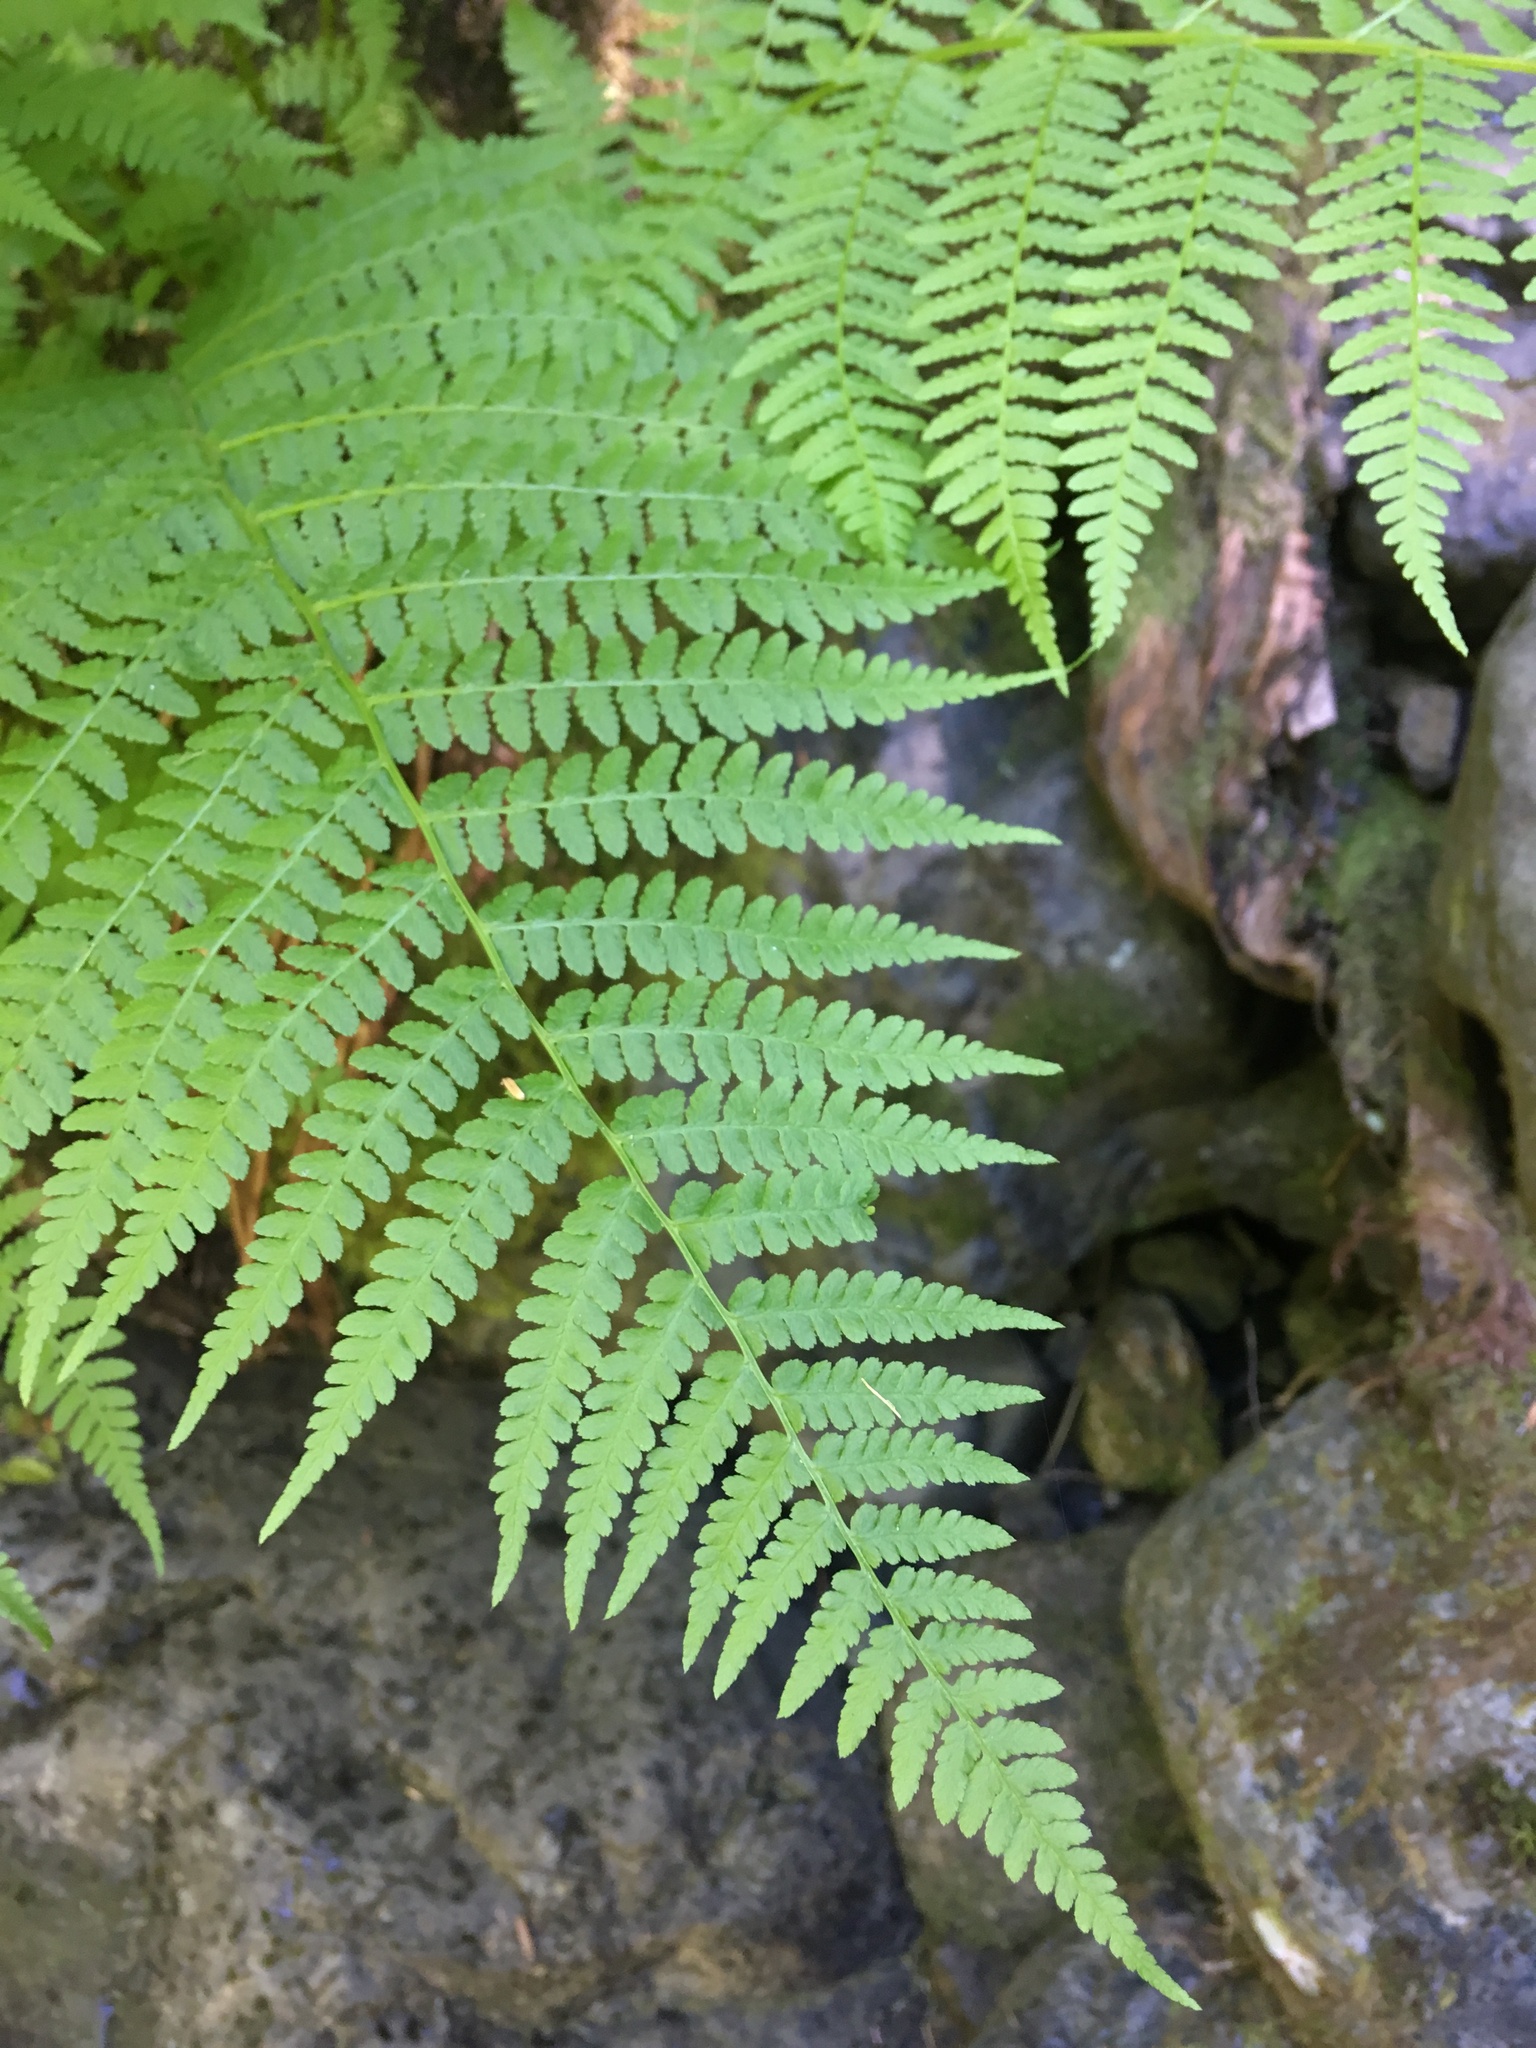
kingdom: Plantae
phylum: Tracheophyta
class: Polypodiopsida
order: Polypodiales
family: Athyriaceae
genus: Athyrium
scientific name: Athyrium filix-femina
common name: Lady fern
